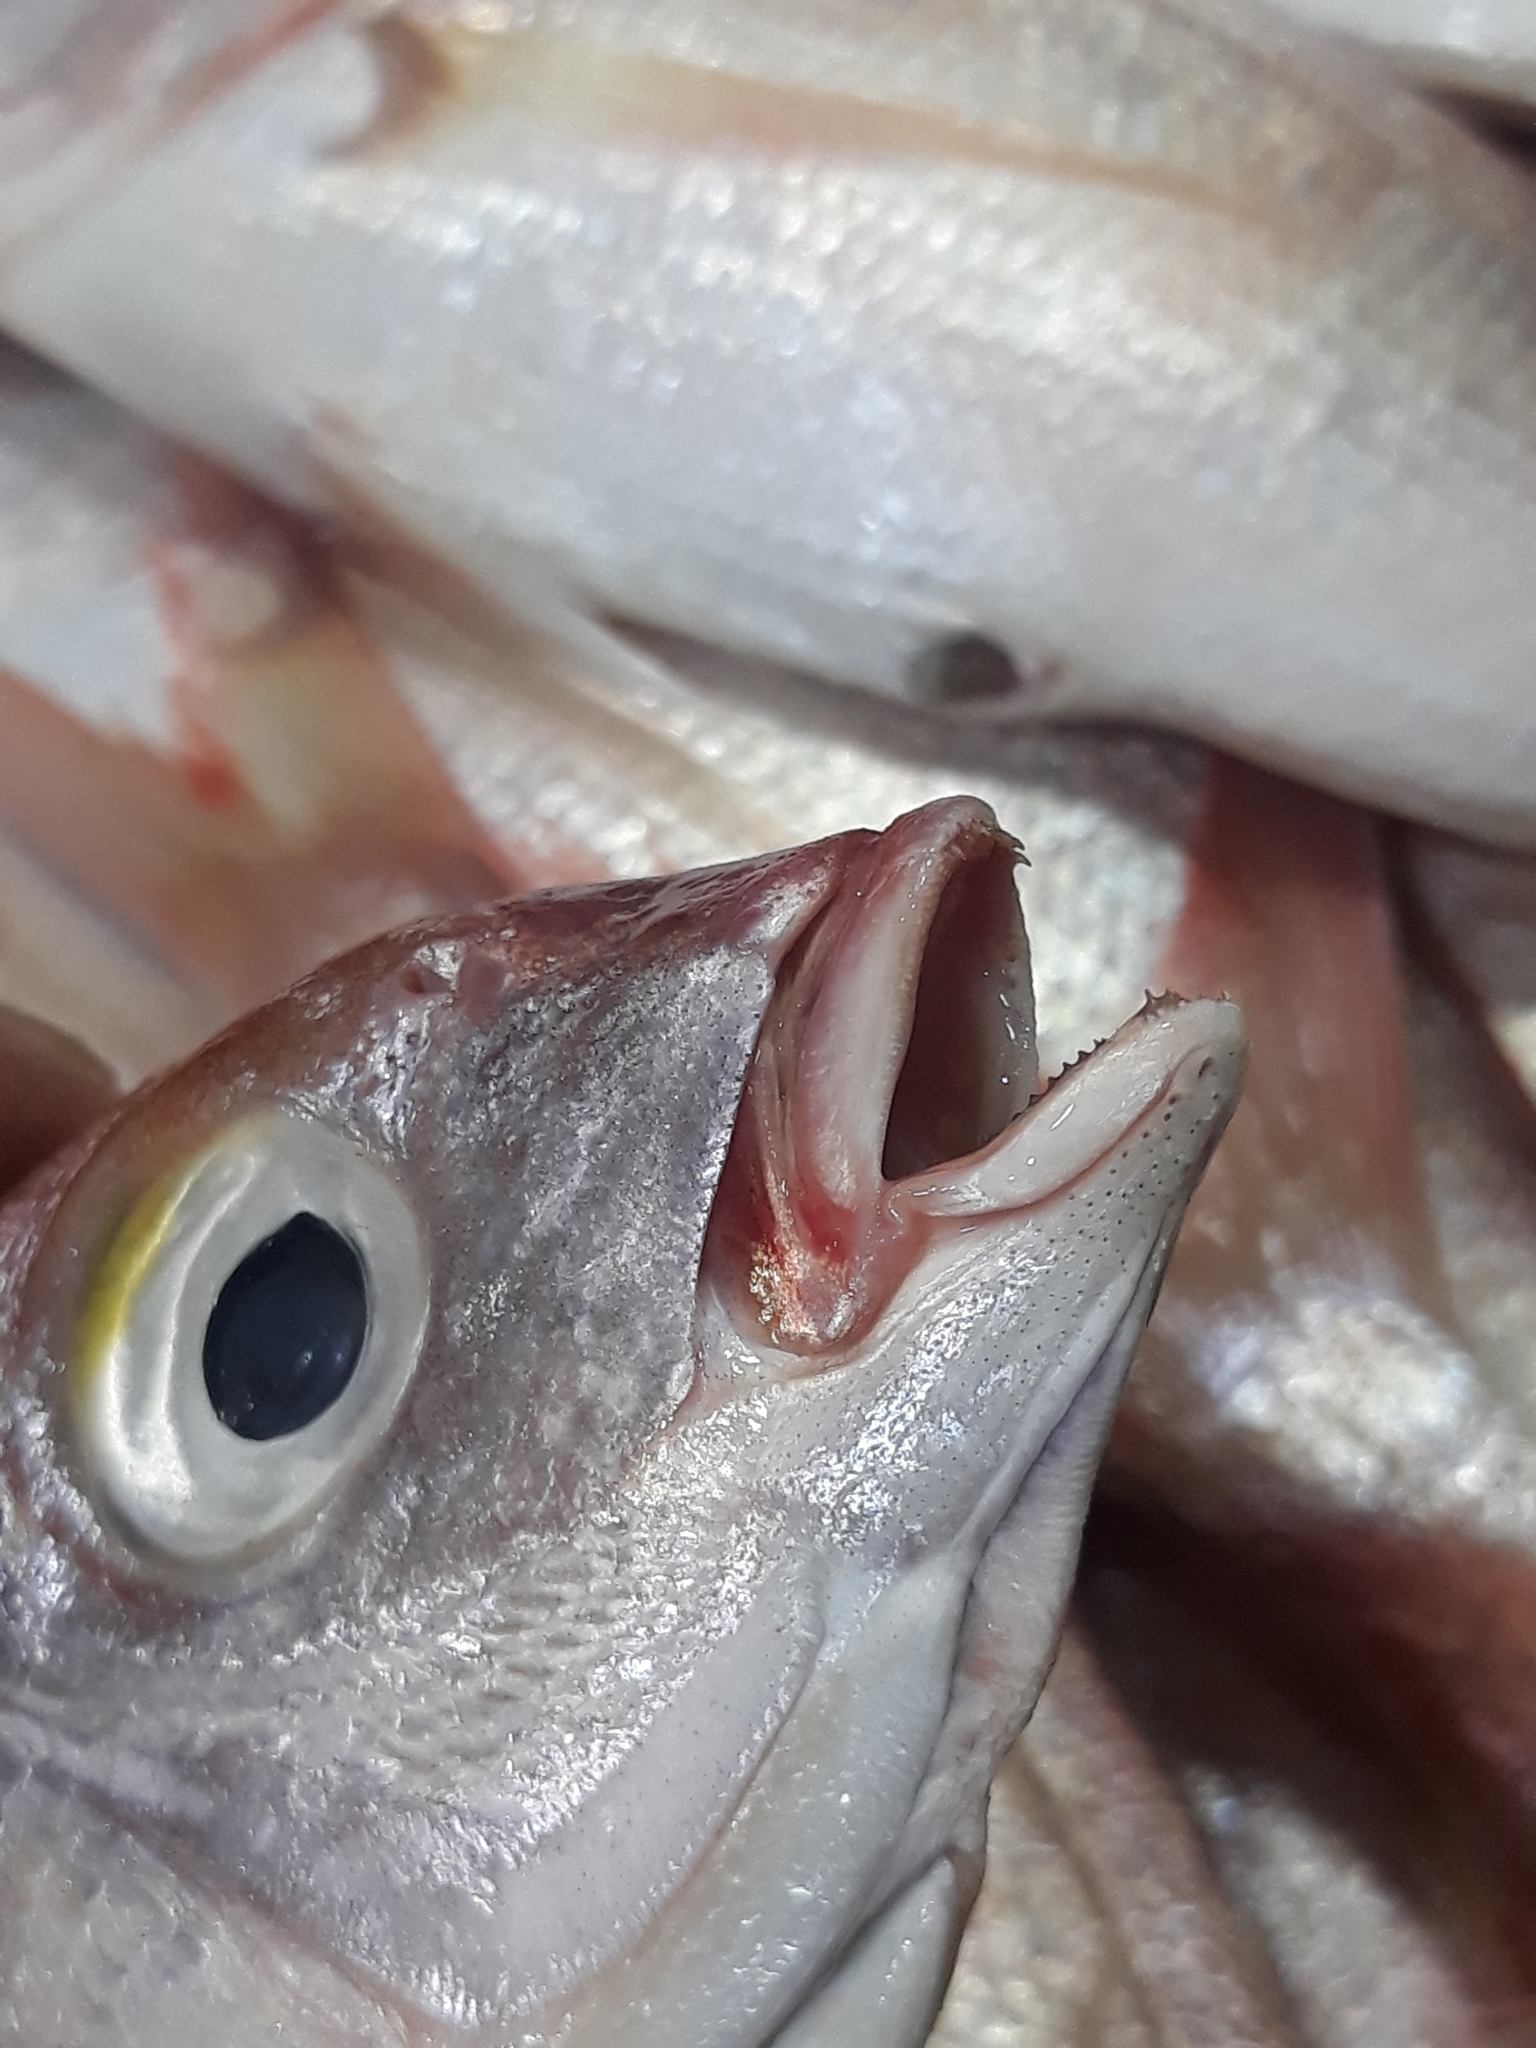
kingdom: Animalia
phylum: Chordata
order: Perciformes
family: Sparidae
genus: Pagellus
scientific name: Pagellus bellottii
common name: Red pandora
